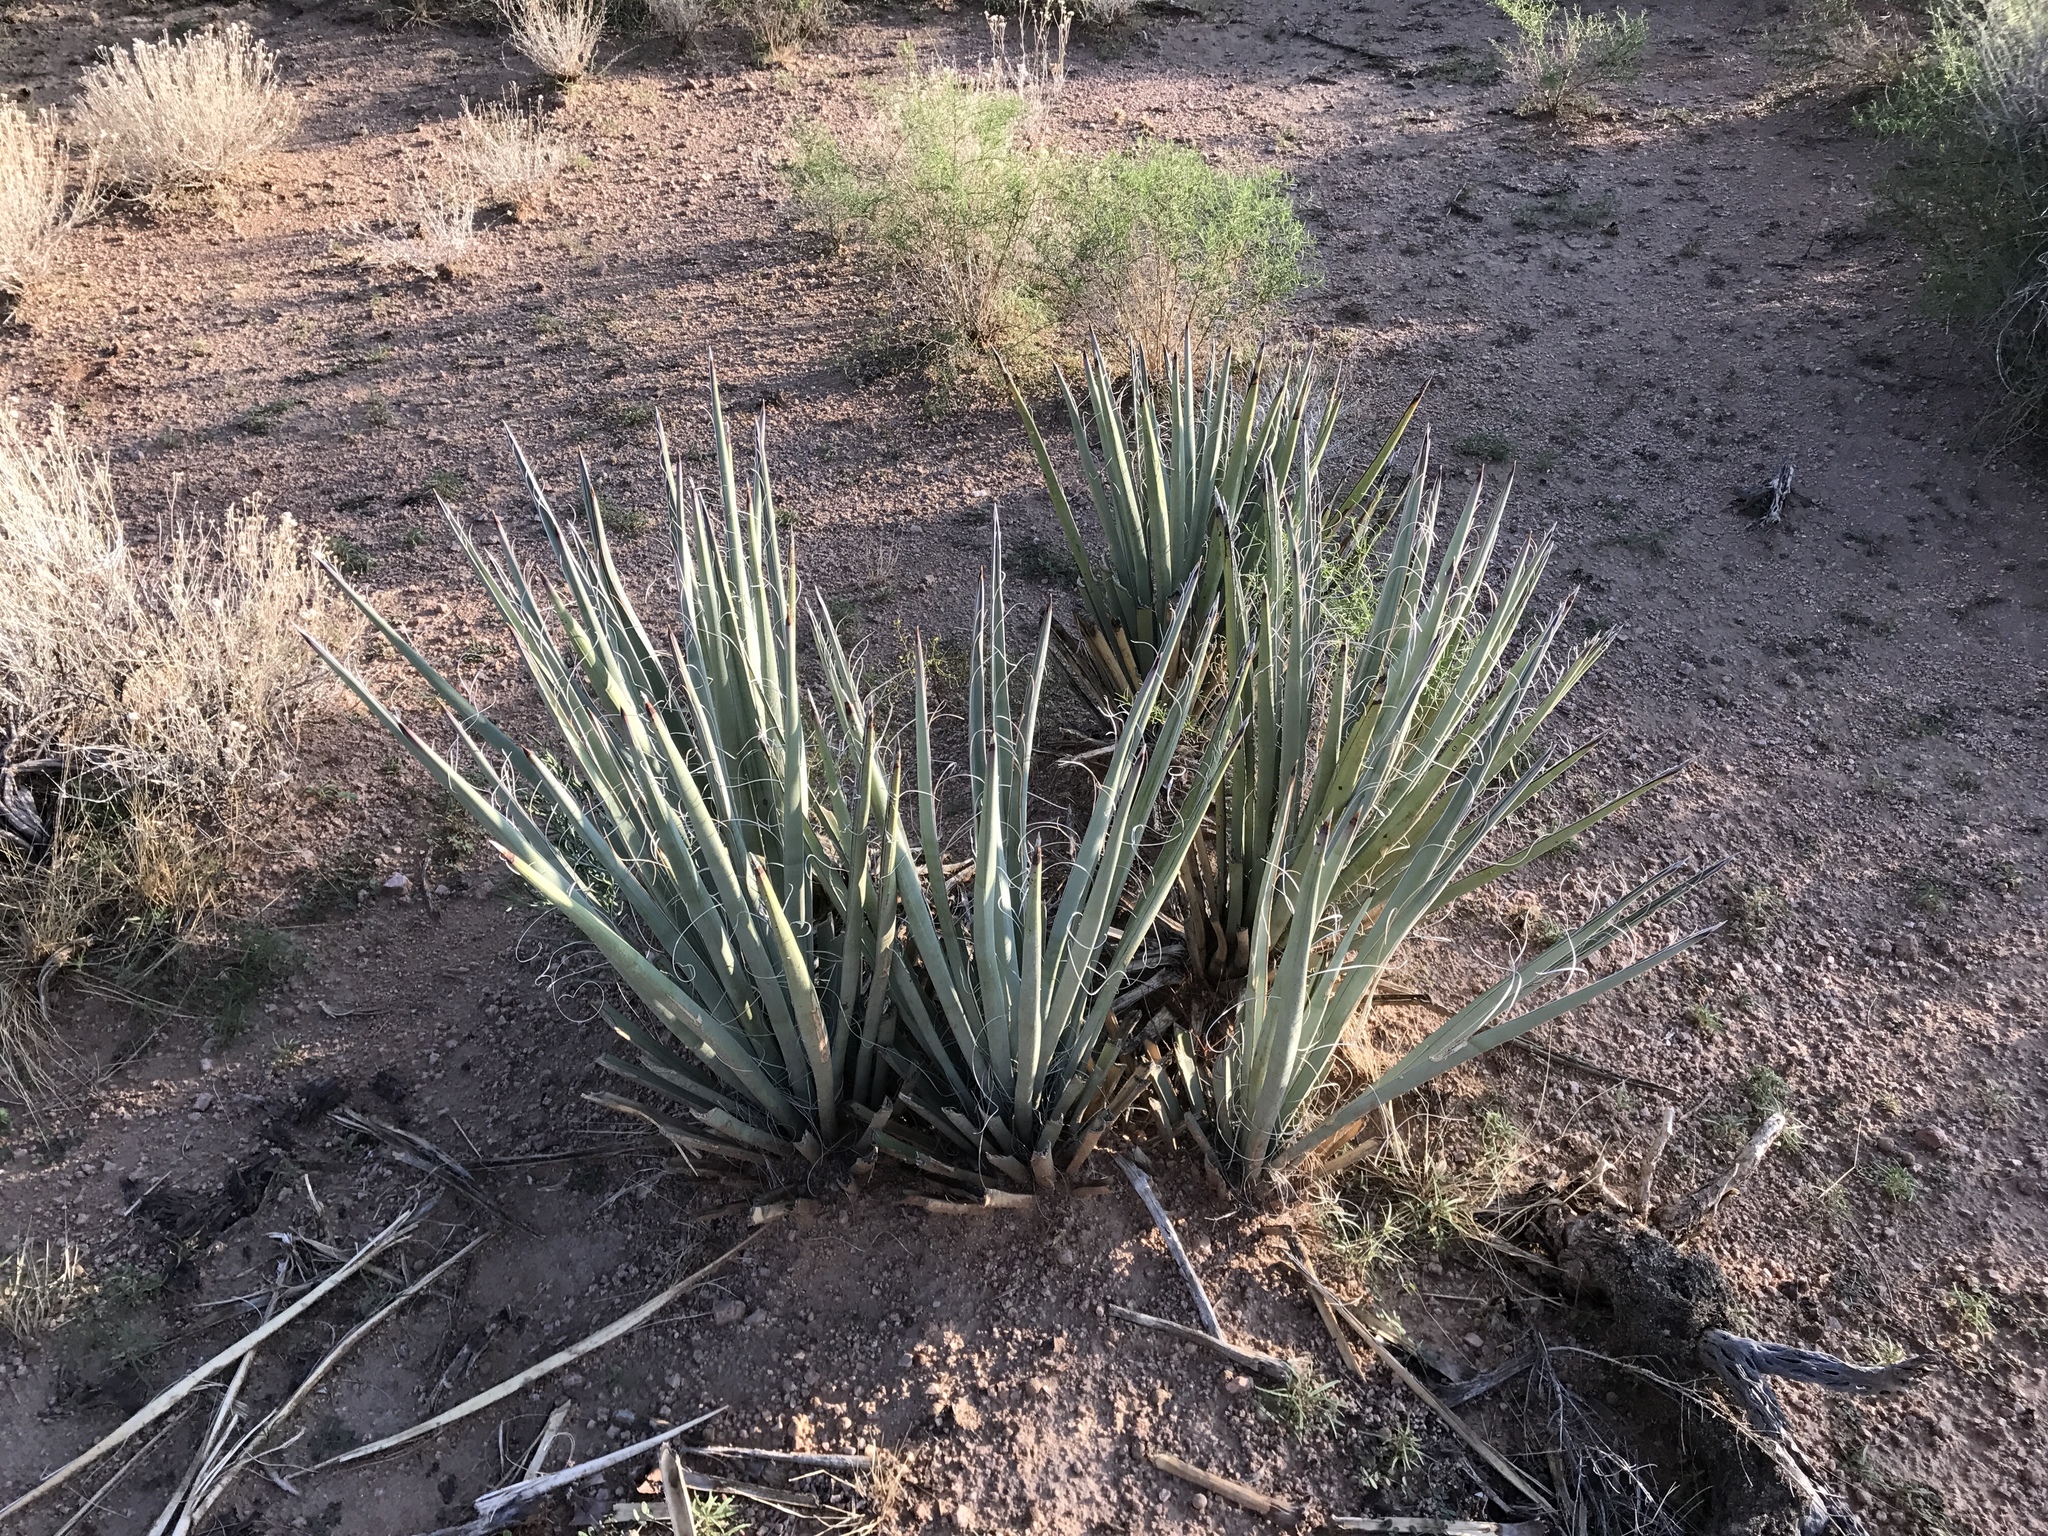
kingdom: Plantae
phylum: Tracheophyta
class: Liliopsida
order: Asparagales
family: Asparagaceae
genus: Yucca
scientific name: Yucca baccata
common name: Banana yucca
